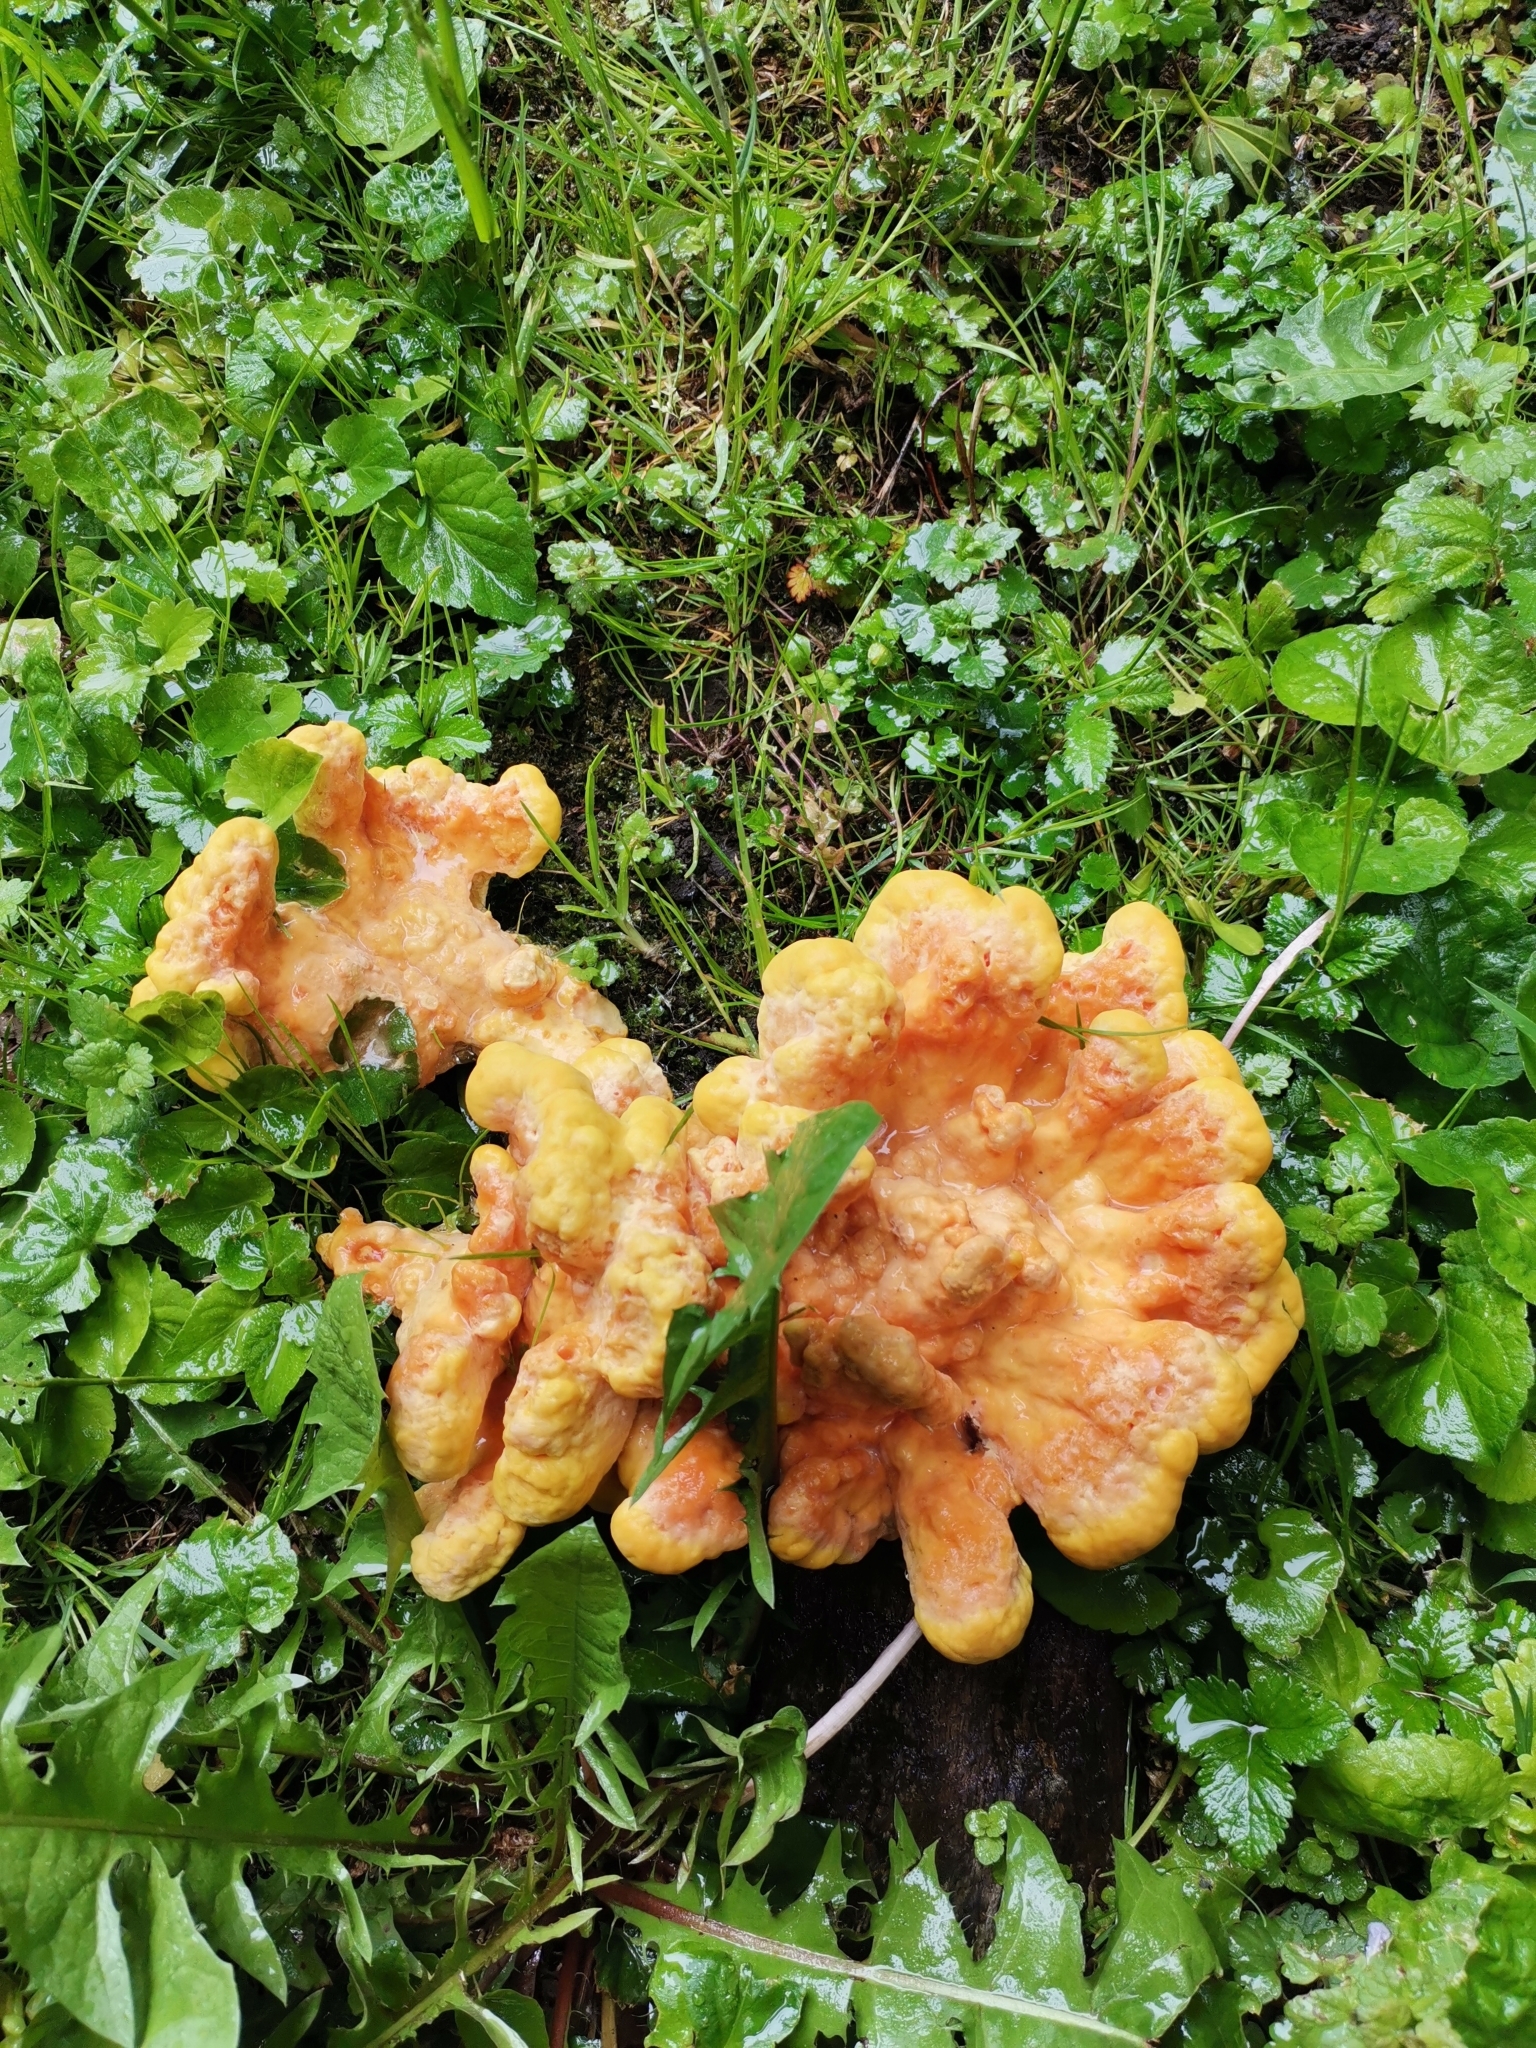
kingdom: Fungi
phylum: Basidiomycota
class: Agaricomycetes
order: Polyporales
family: Laetiporaceae
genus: Laetiporus
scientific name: Laetiporus sulphureus
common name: Chicken of the woods
